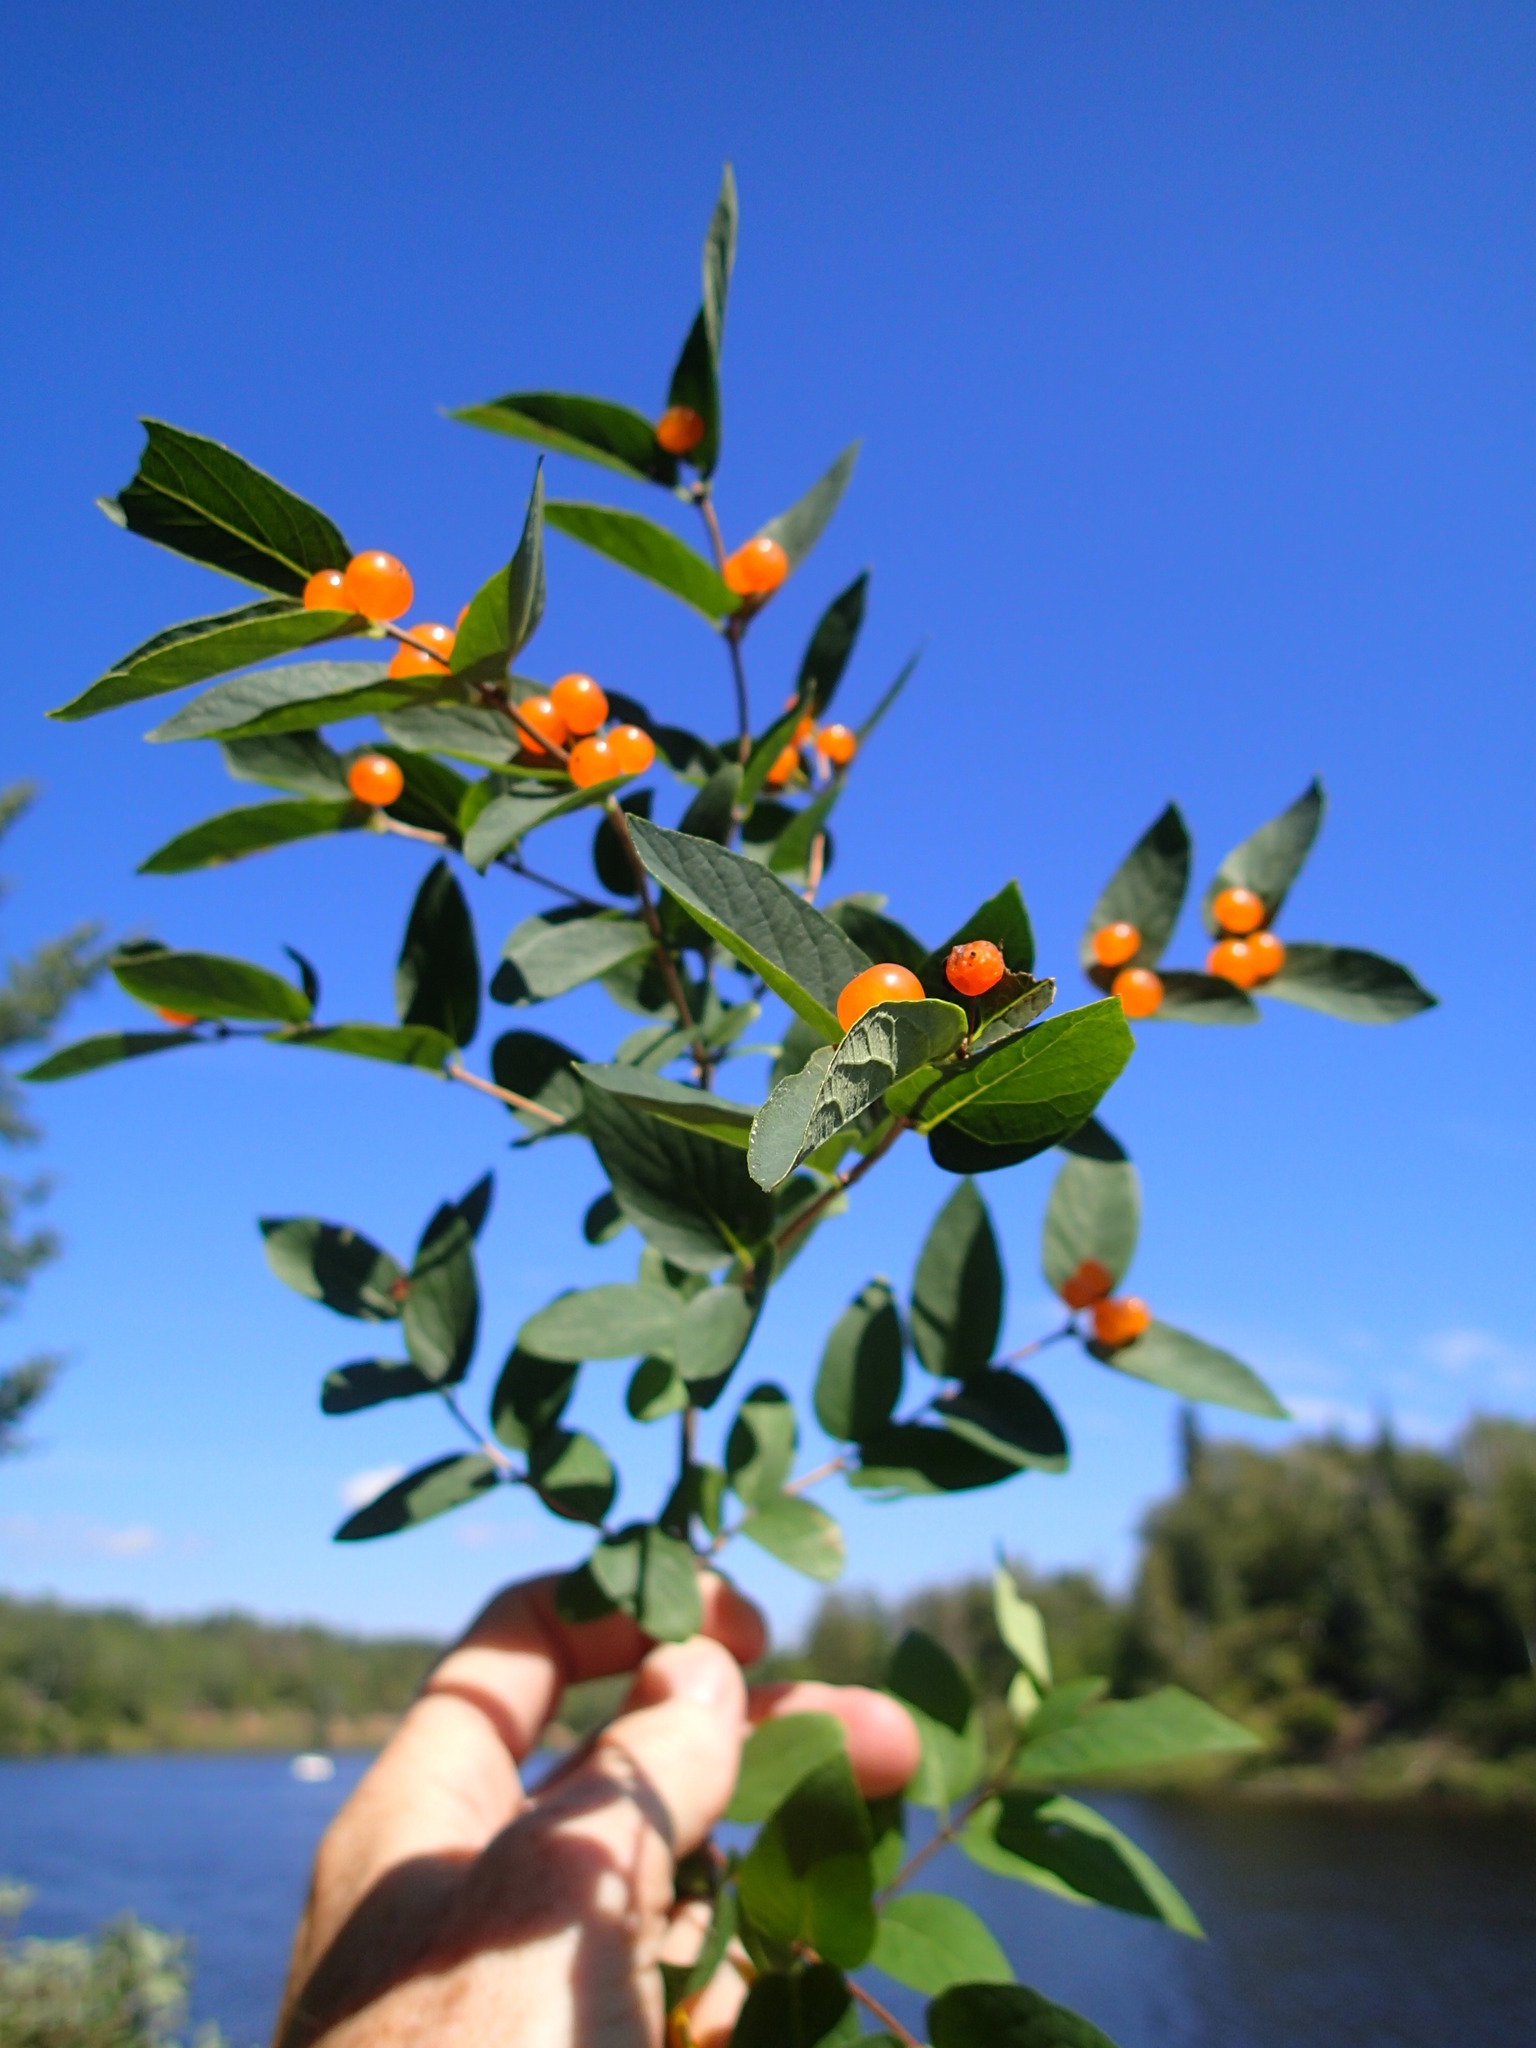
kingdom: Plantae
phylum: Tracheophyta
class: Magnoliopsida
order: Dipsacales
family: Caprifoliaceae
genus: Lonicera
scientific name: Lonicera tatarica
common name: Tatarian honeysuckle
